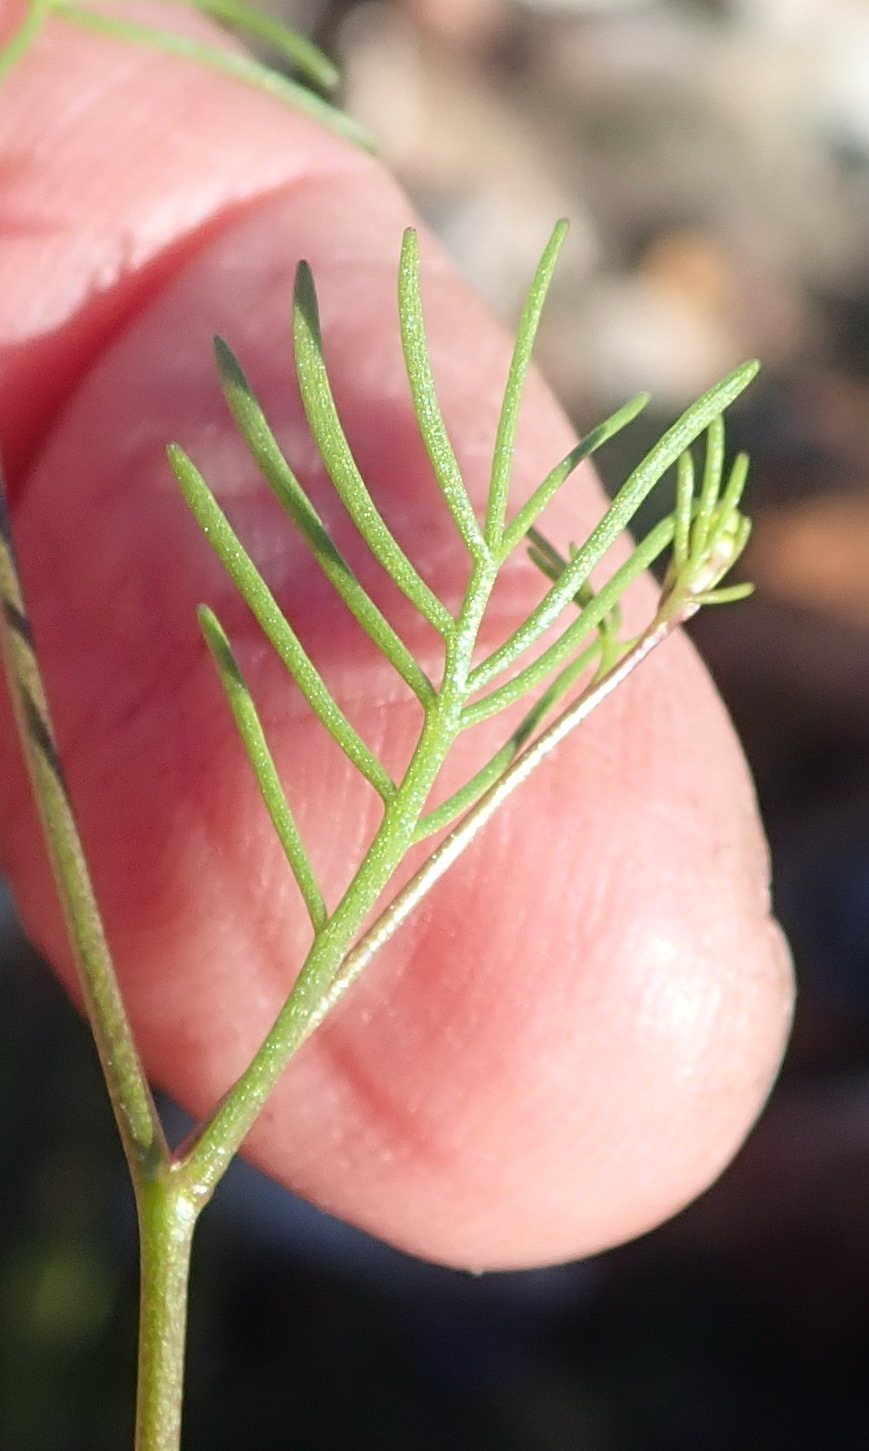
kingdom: Plantae
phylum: Tracheophyta
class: Magnoliopsida
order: Brassicales
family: Brassicaceae
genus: Heliophila
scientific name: Heliophila pendula
